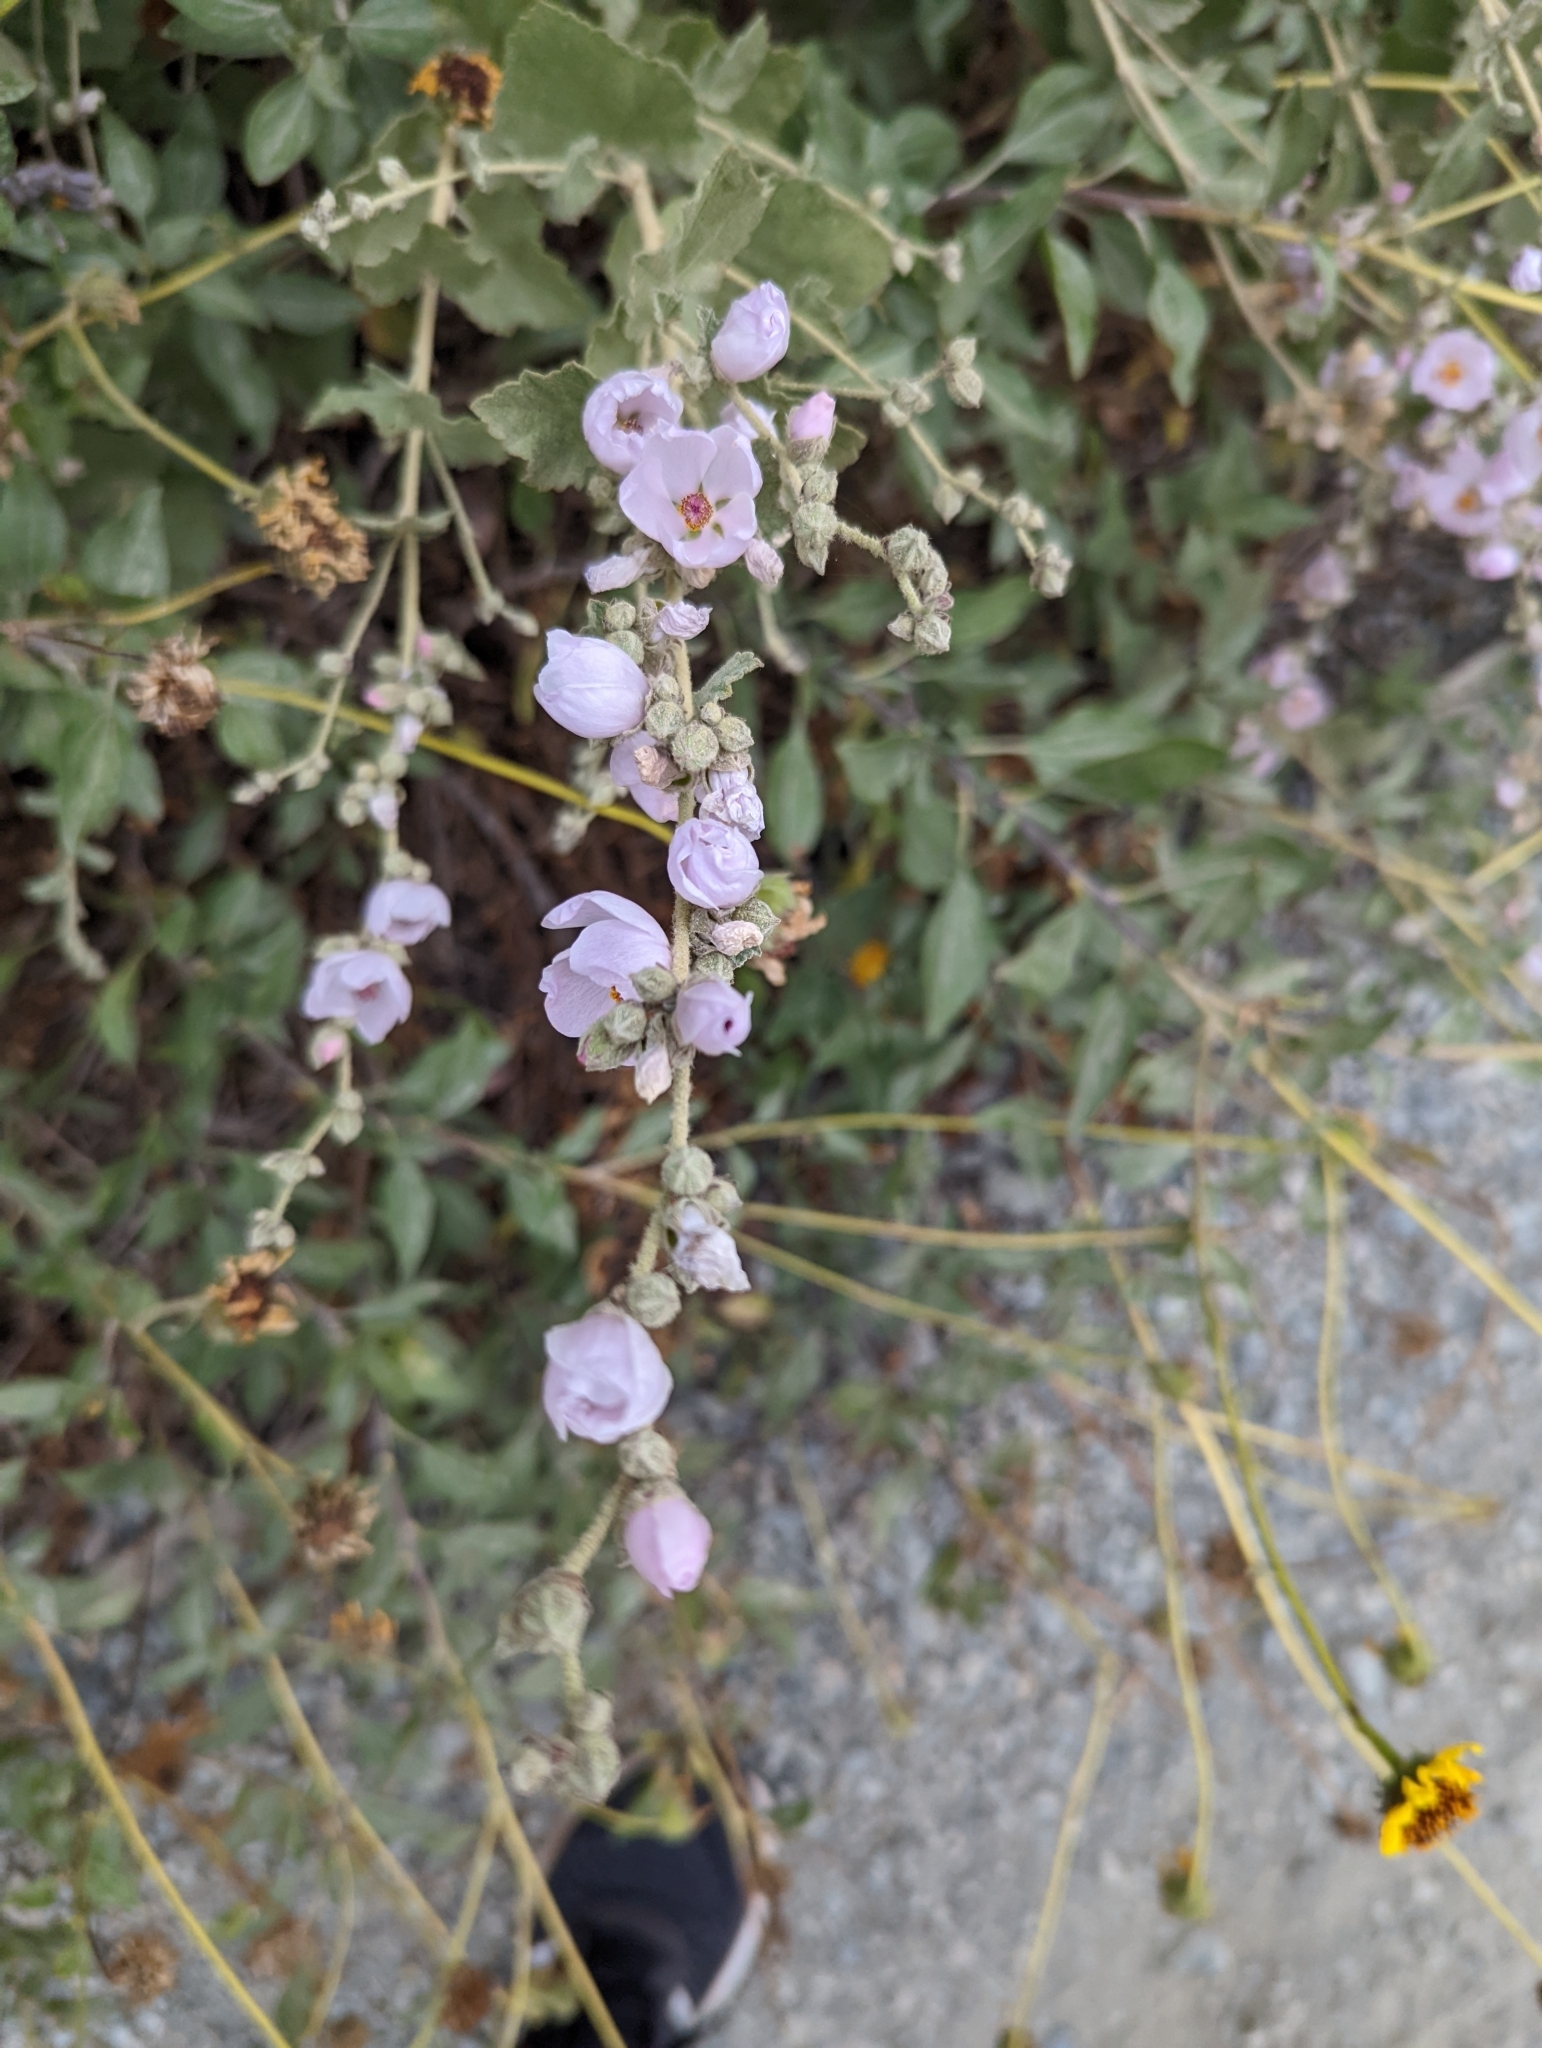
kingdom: Plantae
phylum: Tracheophyta
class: Magnoliopsida
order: Malvales
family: Malvaceae
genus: Malacothamnus
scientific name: Malacothamnus fasciculatus
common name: Sant cruz island bush-mallow
